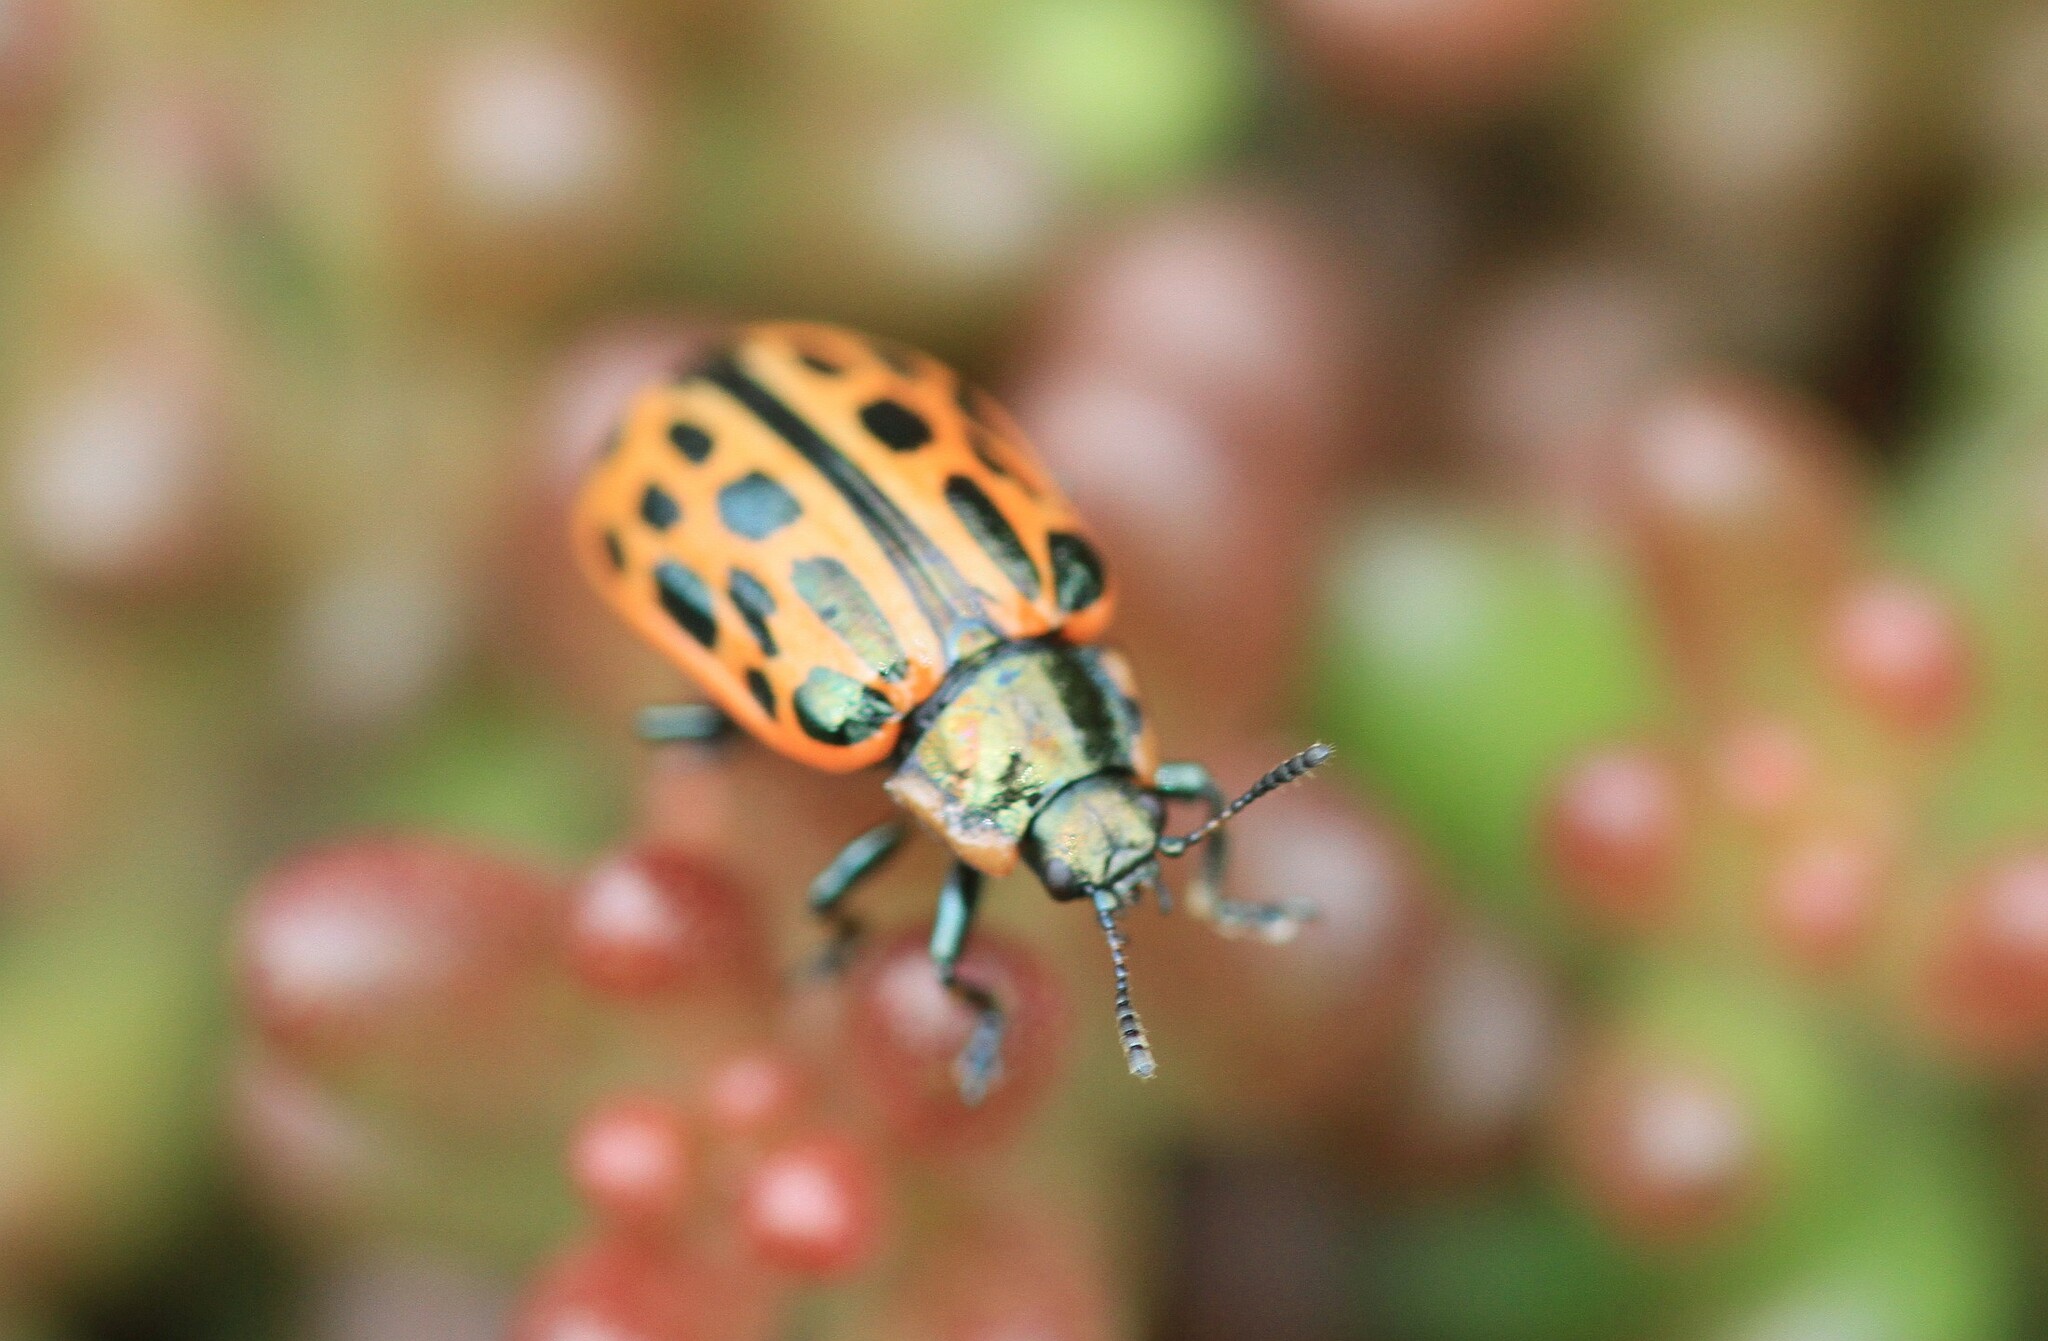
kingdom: Animalia
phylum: Arthropoda
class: Insecta
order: Coleoptera
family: Chrysomelidae
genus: Chrysomela
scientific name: Chrysomela vigintipunctata
